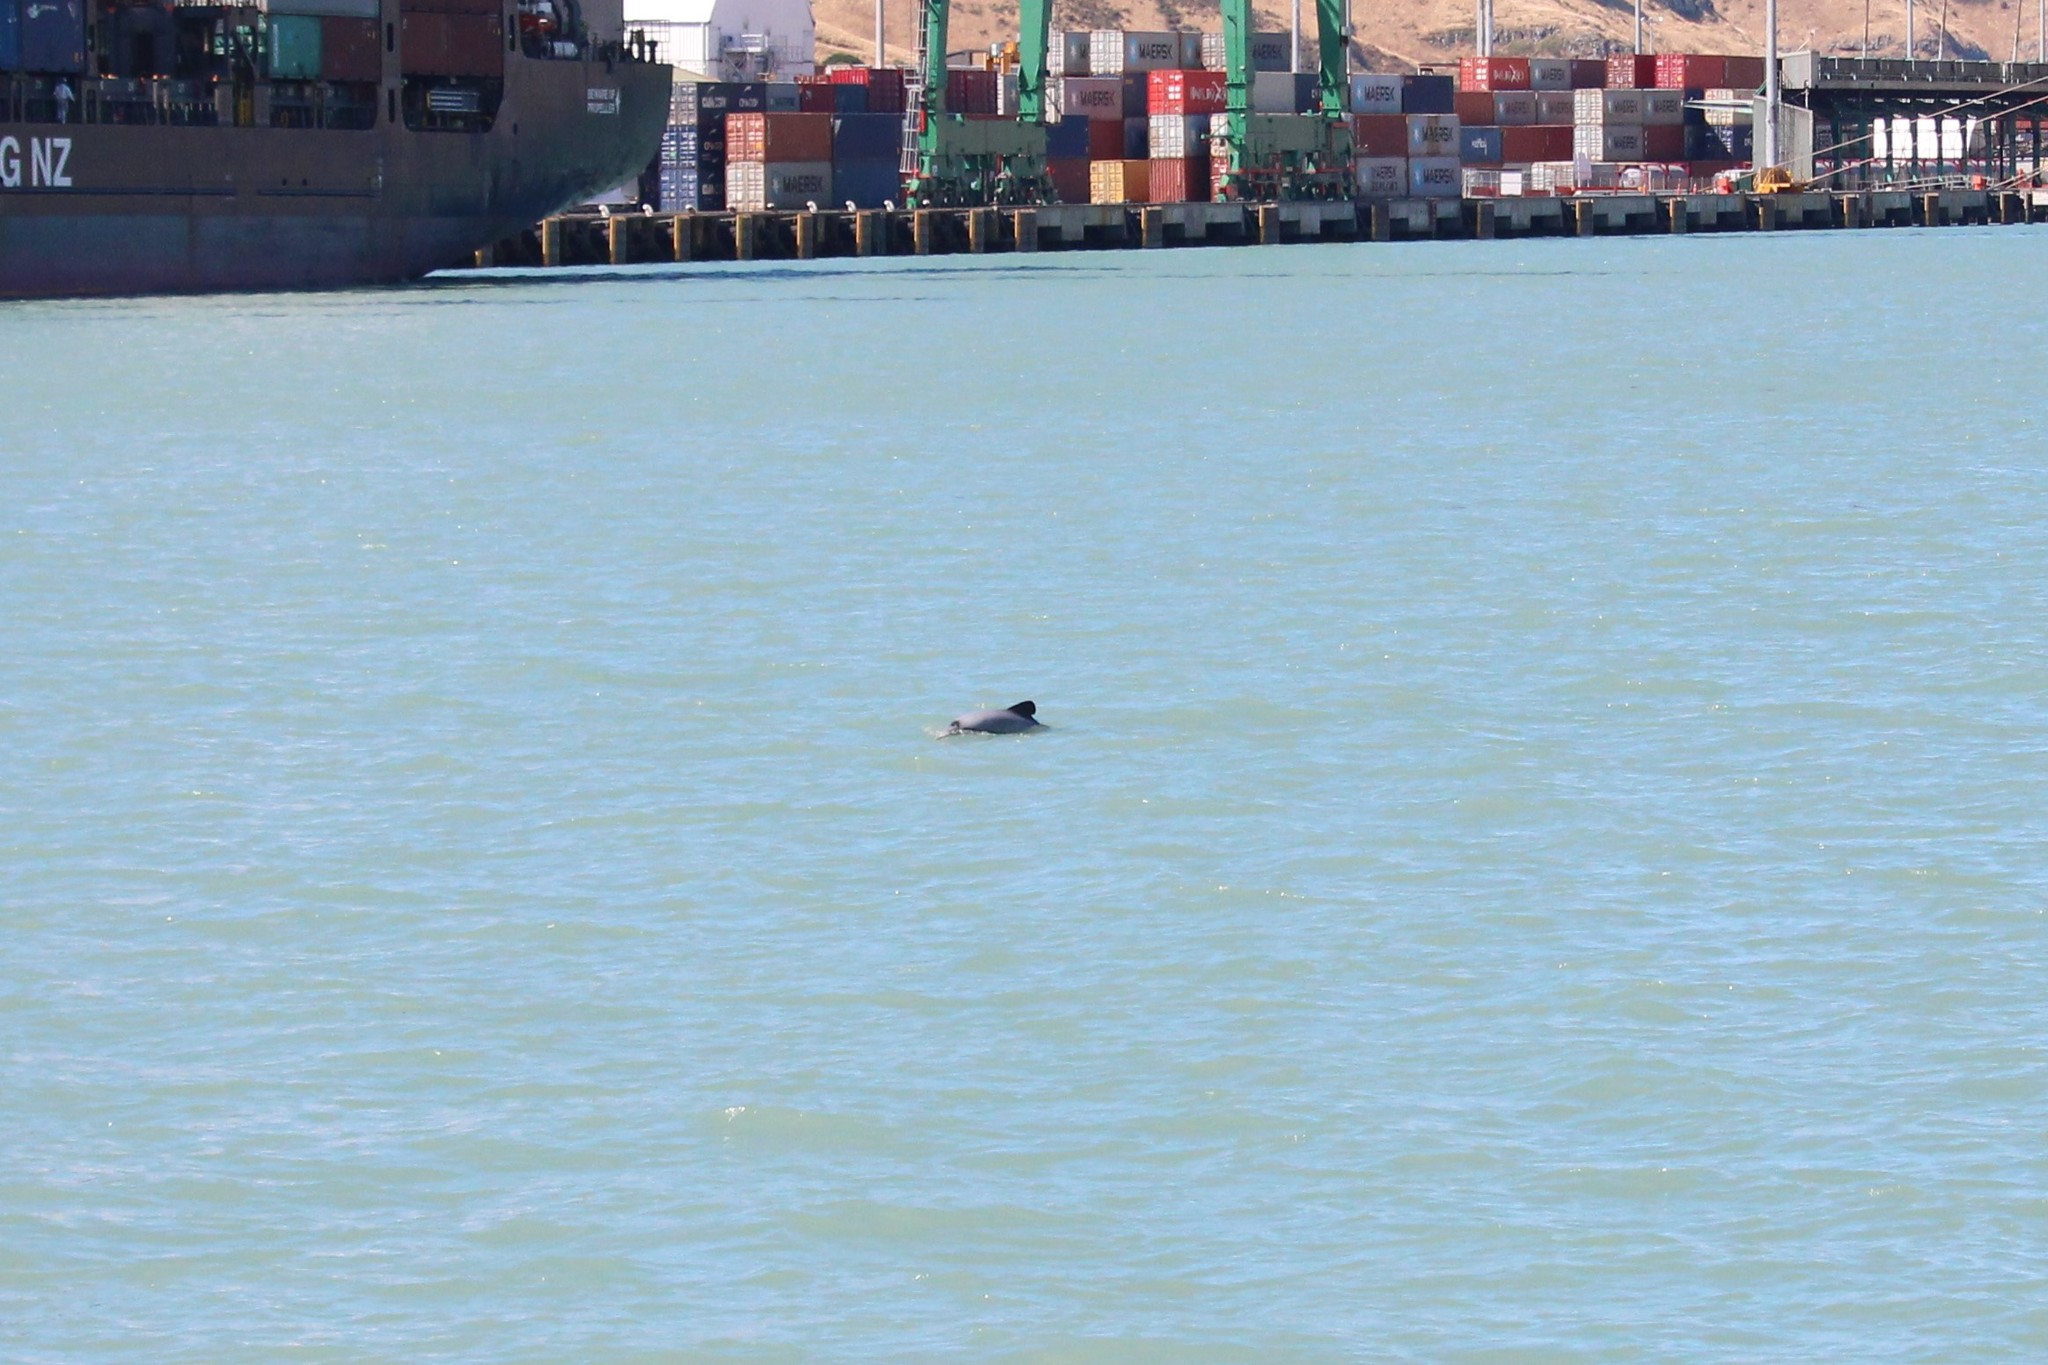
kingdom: Animalia
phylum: Chordata
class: Mammalia
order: Cetacea
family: Delphinidae
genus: Cephalorhynchus
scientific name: Cephalorhynchus hectori
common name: Hector's dolphin
